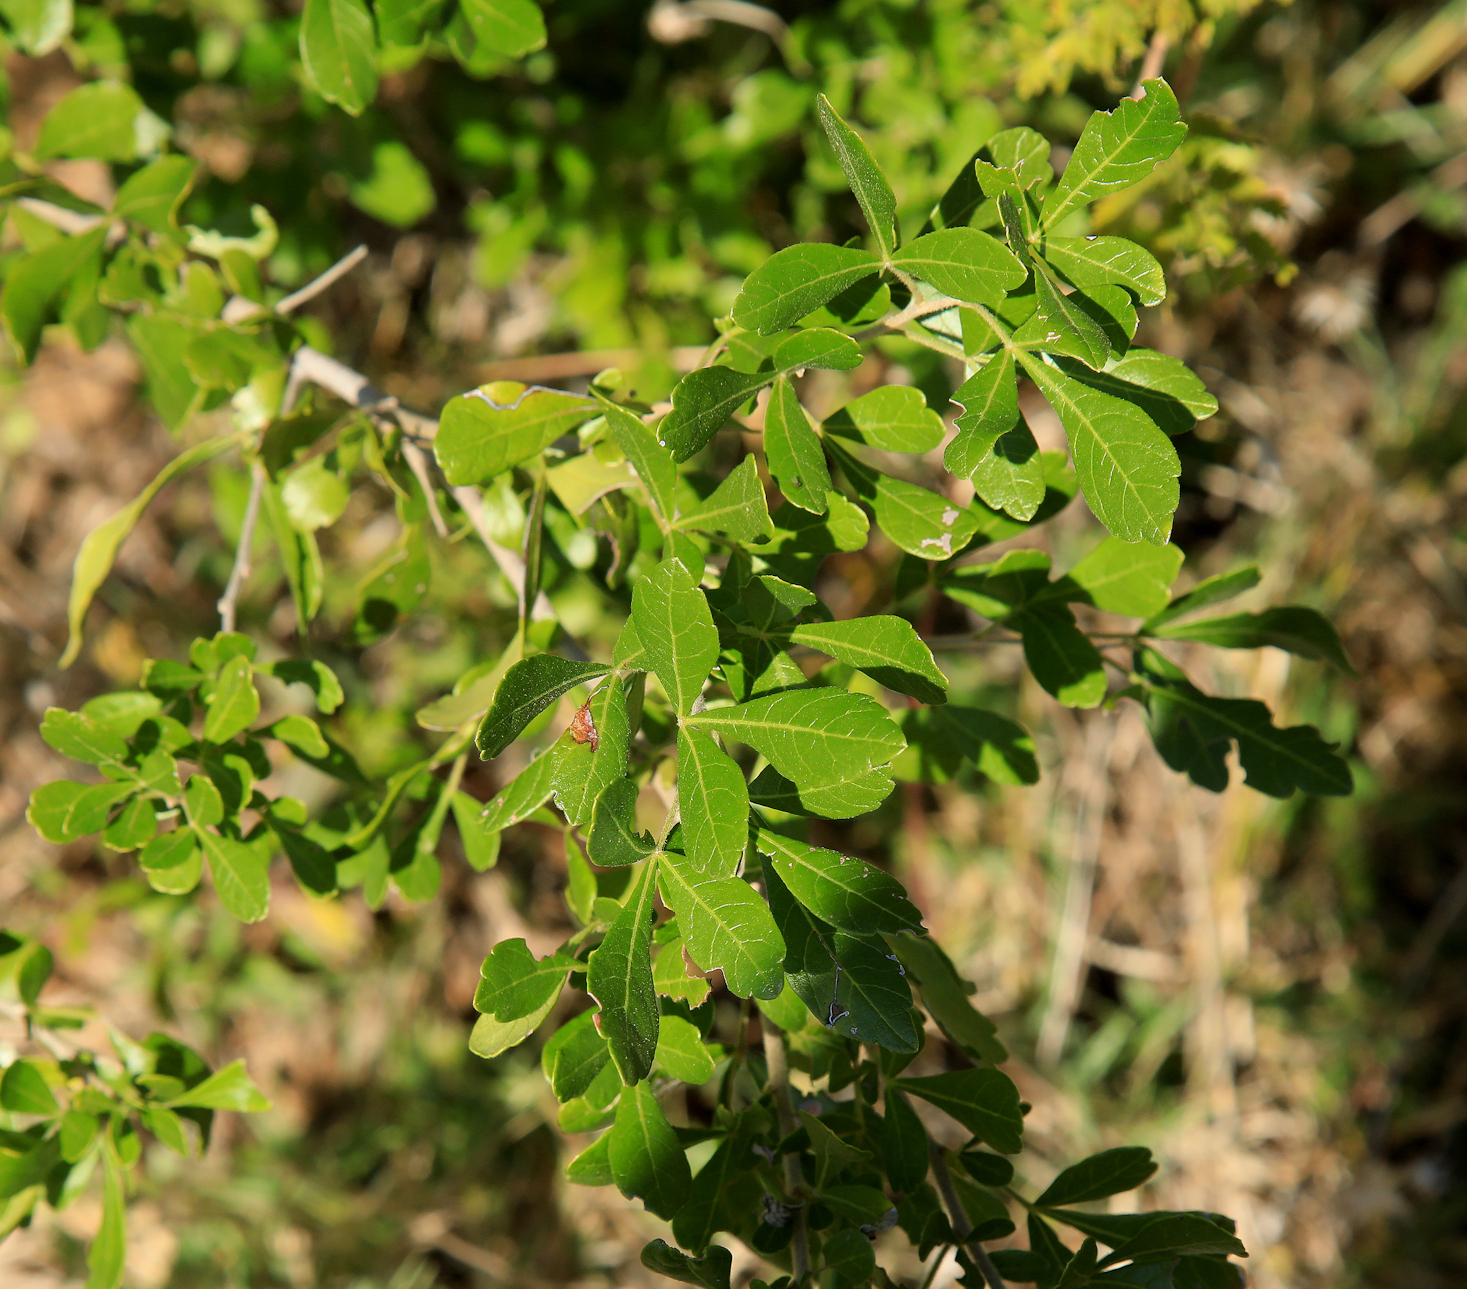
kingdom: Plantae
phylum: Tracheophyta
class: Magnoliopsida
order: Sapindales
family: Anacardiaceae
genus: Searsia
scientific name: Searsia pentheri
